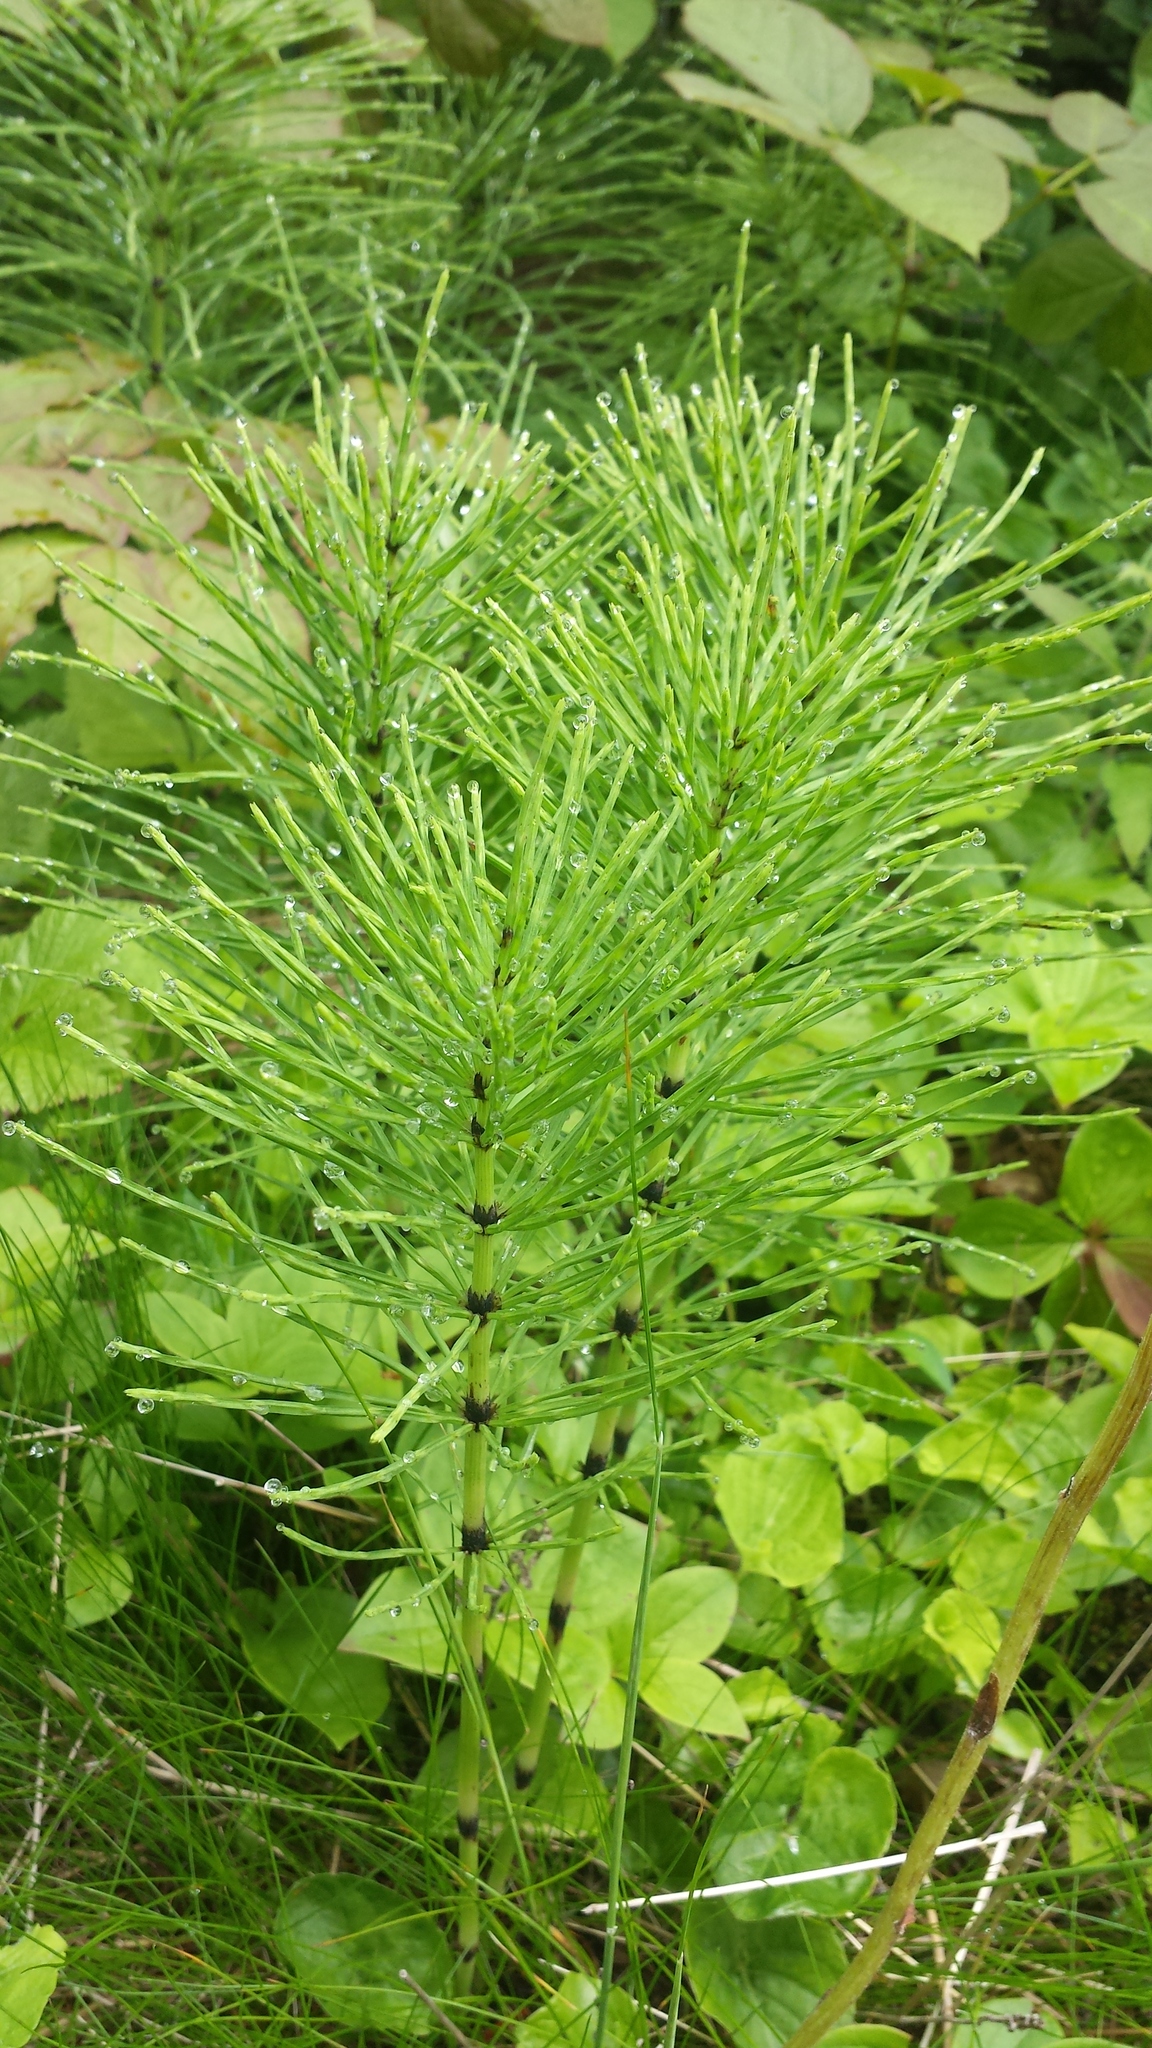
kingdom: Plantae
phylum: Tracheophyta
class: Polypodiopsida
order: Equisetales
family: Equisetaceae
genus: Equisetum
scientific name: Equisetum arvense
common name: Field horsetail
